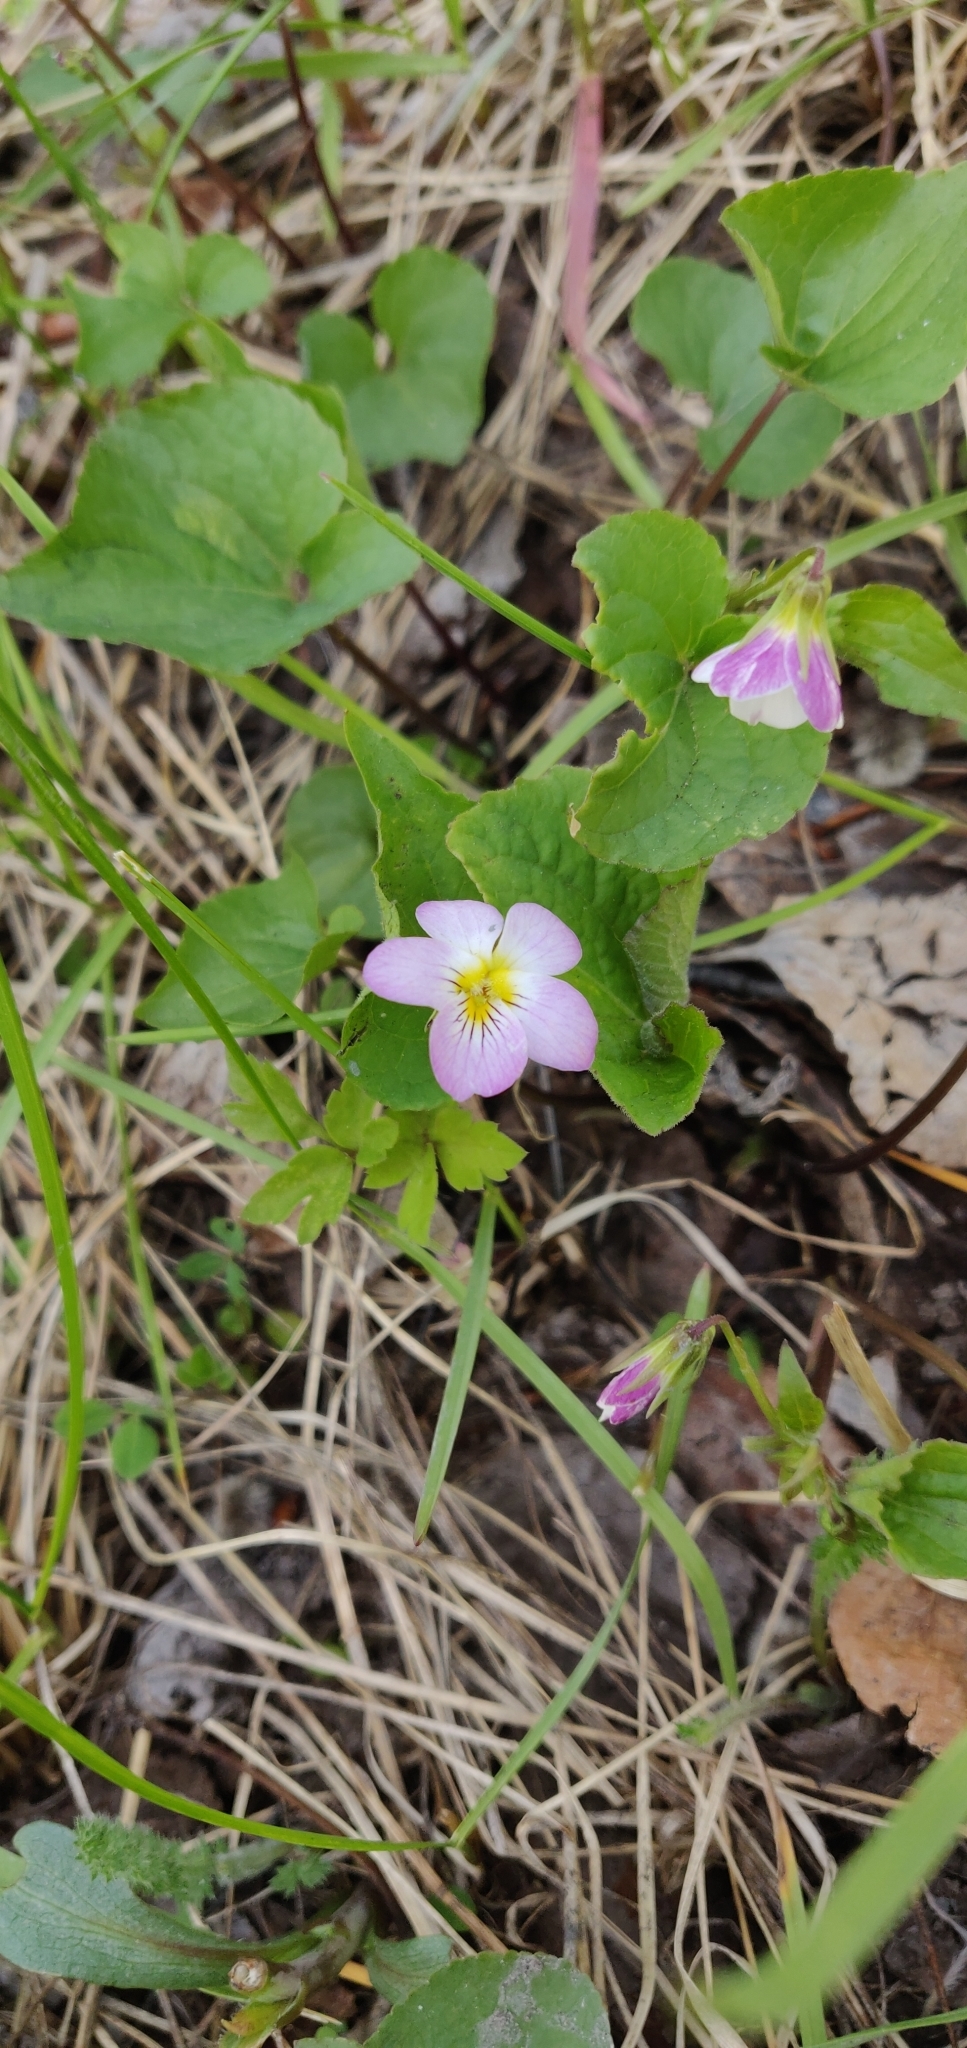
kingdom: Plantae
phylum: Tracheophyta
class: Magnoliopsida
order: Malpighiales
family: Violaceae
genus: Viola
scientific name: Viola canadensis
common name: Canada violet
